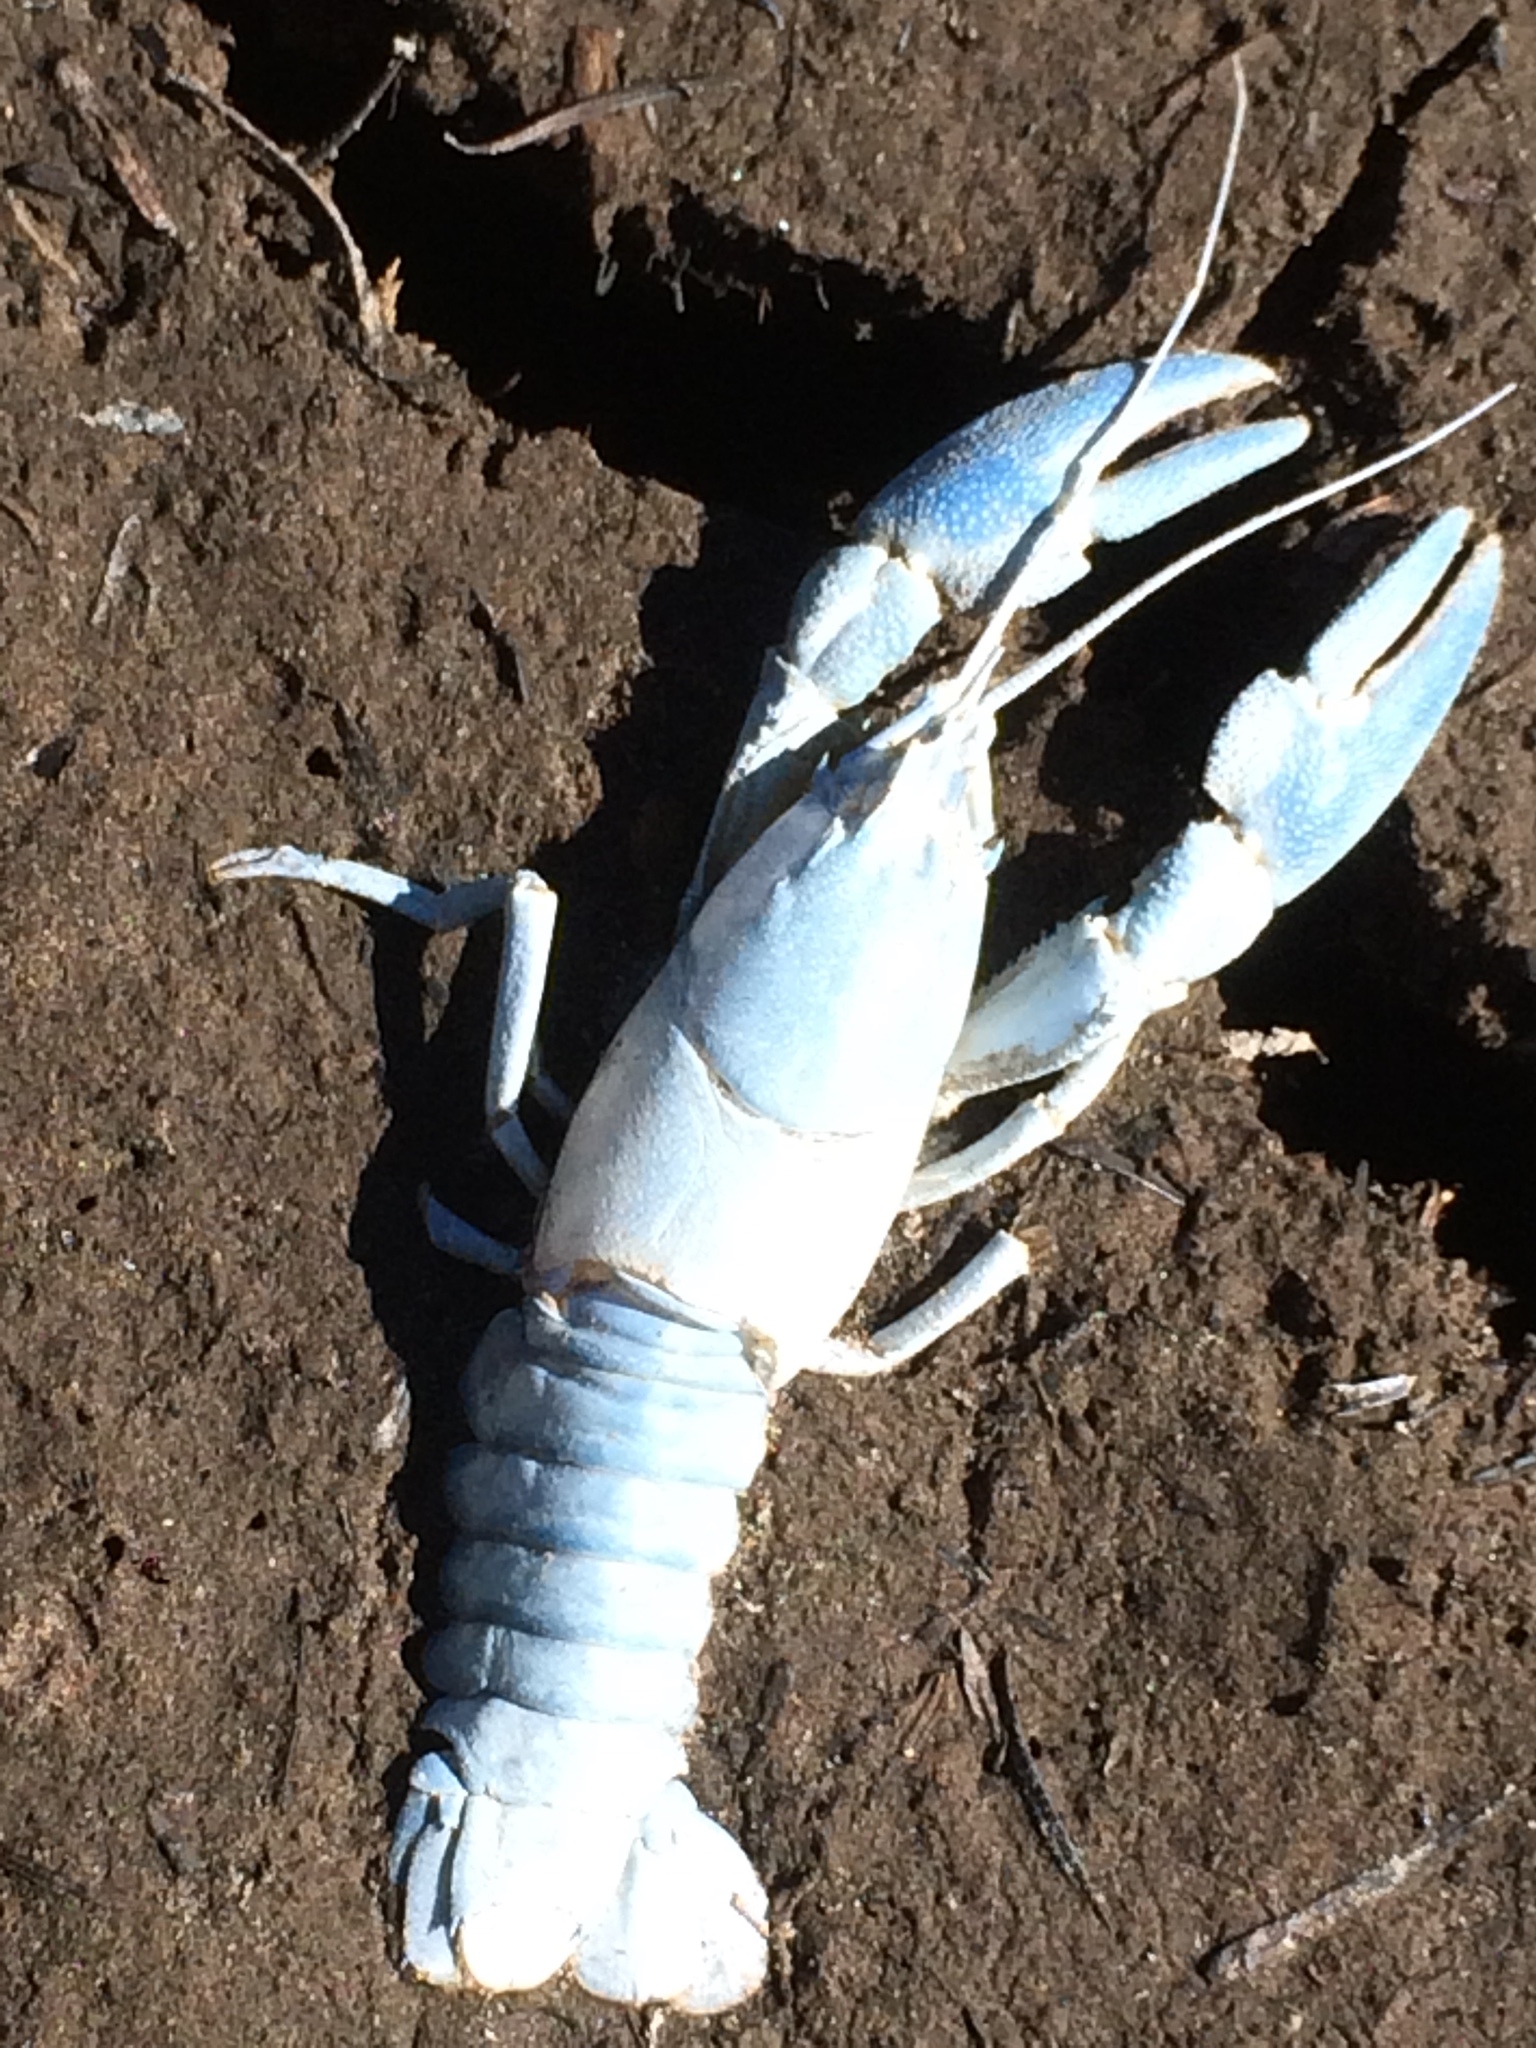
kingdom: Animalia
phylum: Arthropoda
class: Malacostraca
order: Decapoda
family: Astacidae
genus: Pacifastacus
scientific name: Pacifastacus leniusculus
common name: Signal crayfish
